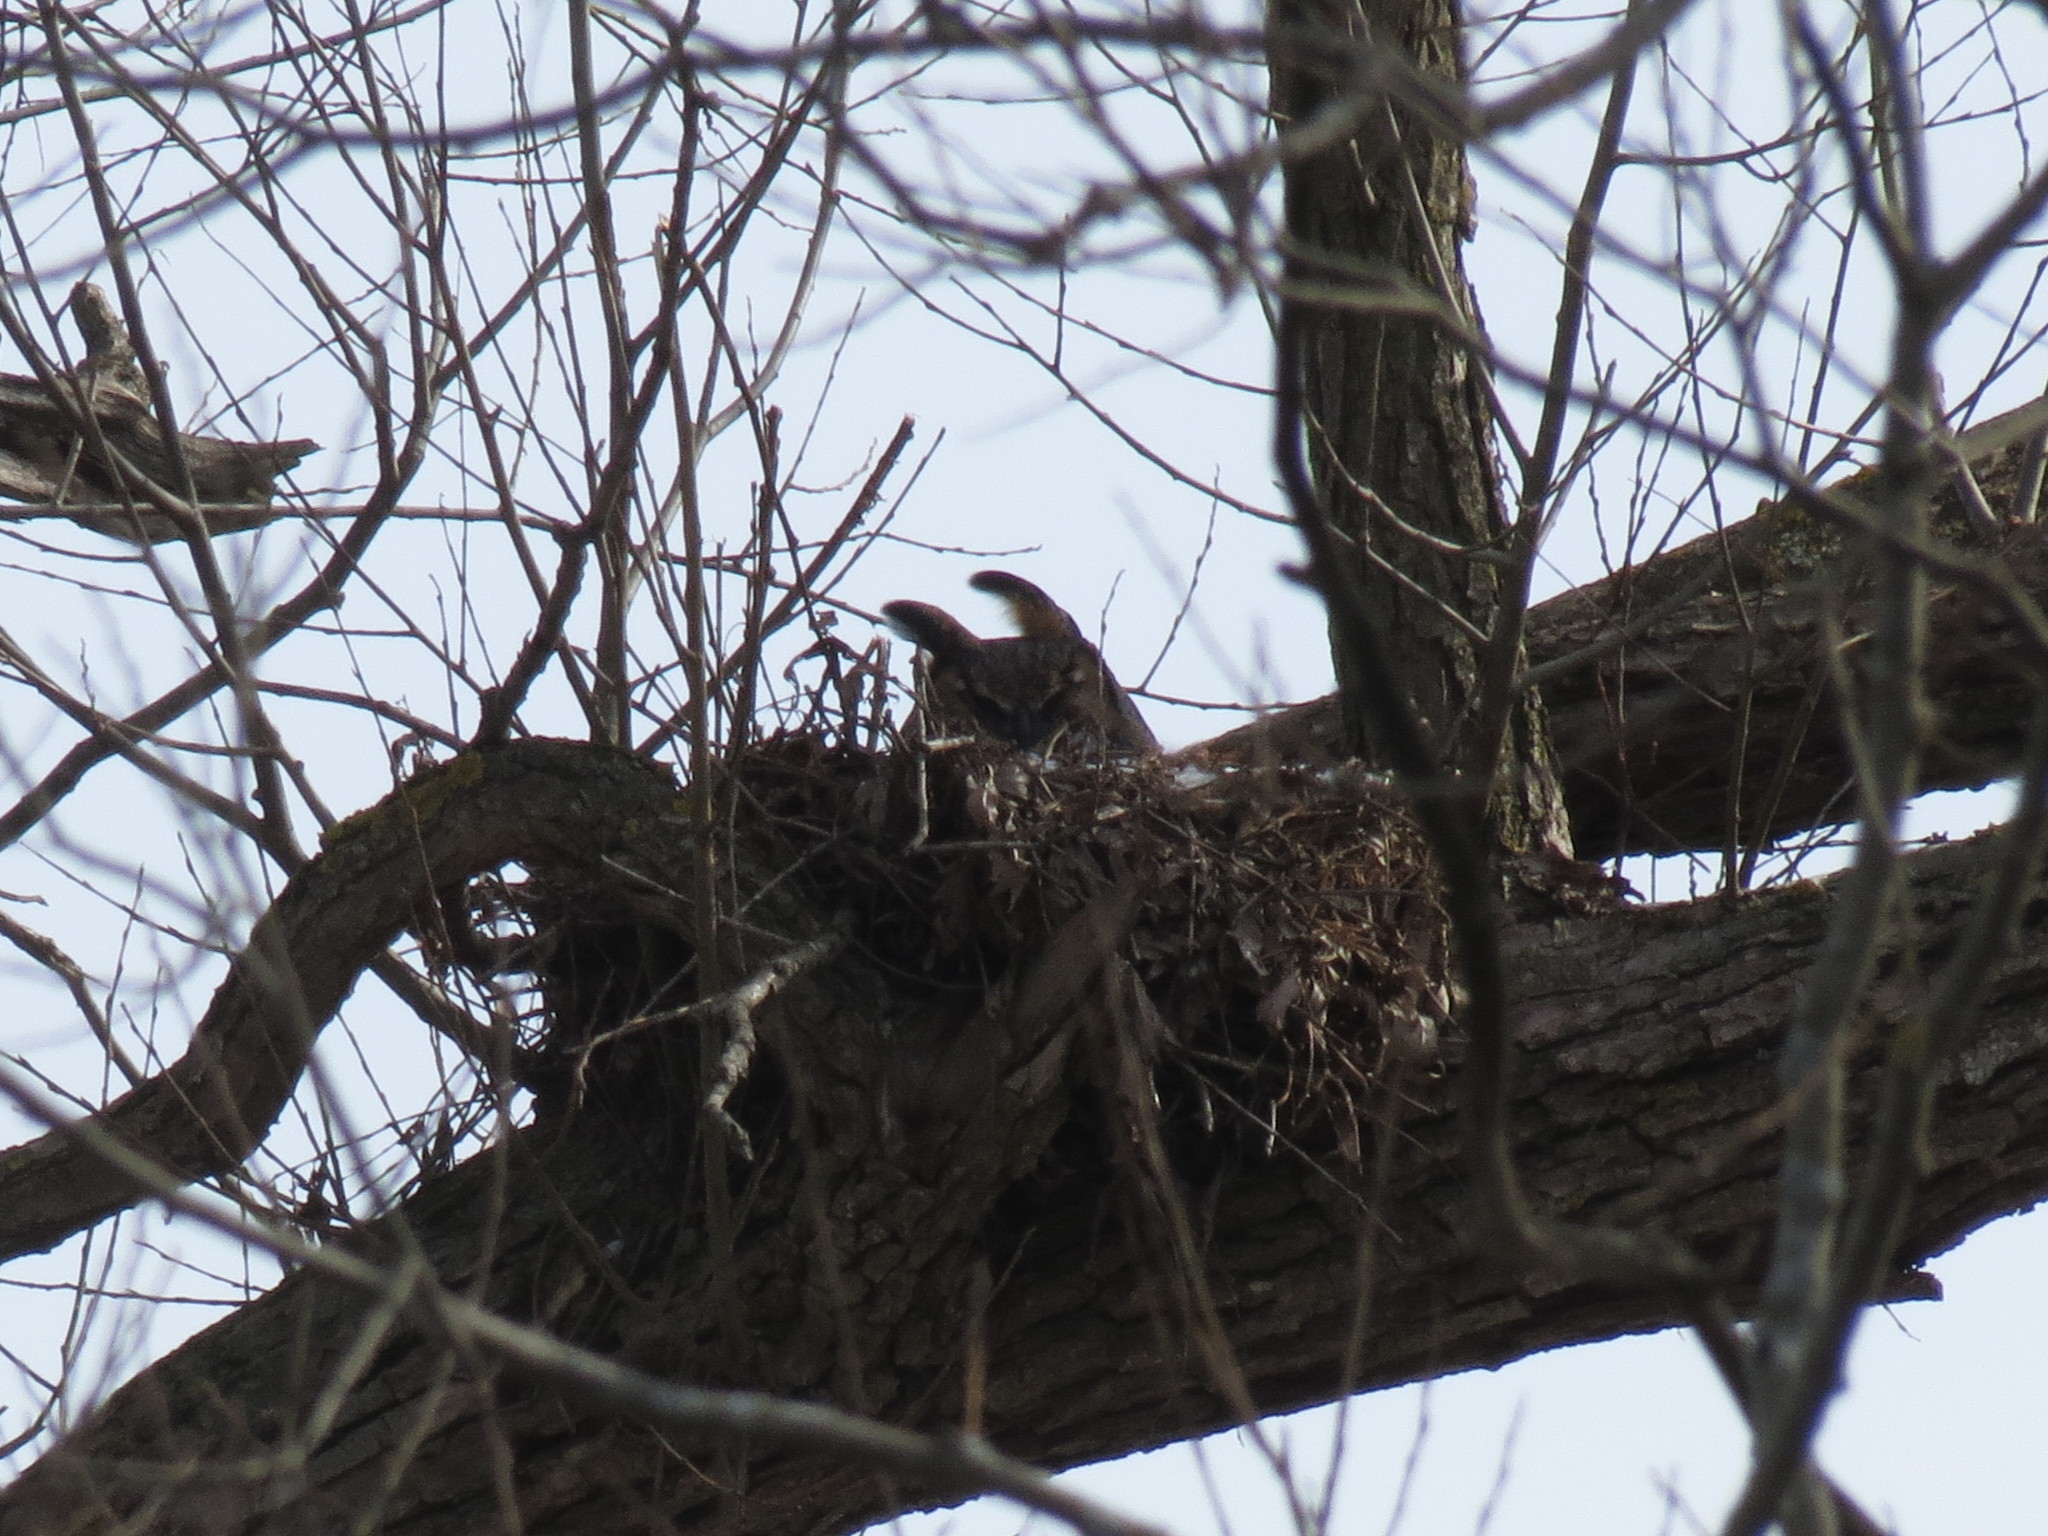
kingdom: Animalia
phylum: Chordata
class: Aves
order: Strigiformes
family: Strigidae
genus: Bubo
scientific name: Bubo virginianus
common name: Great horned owl
